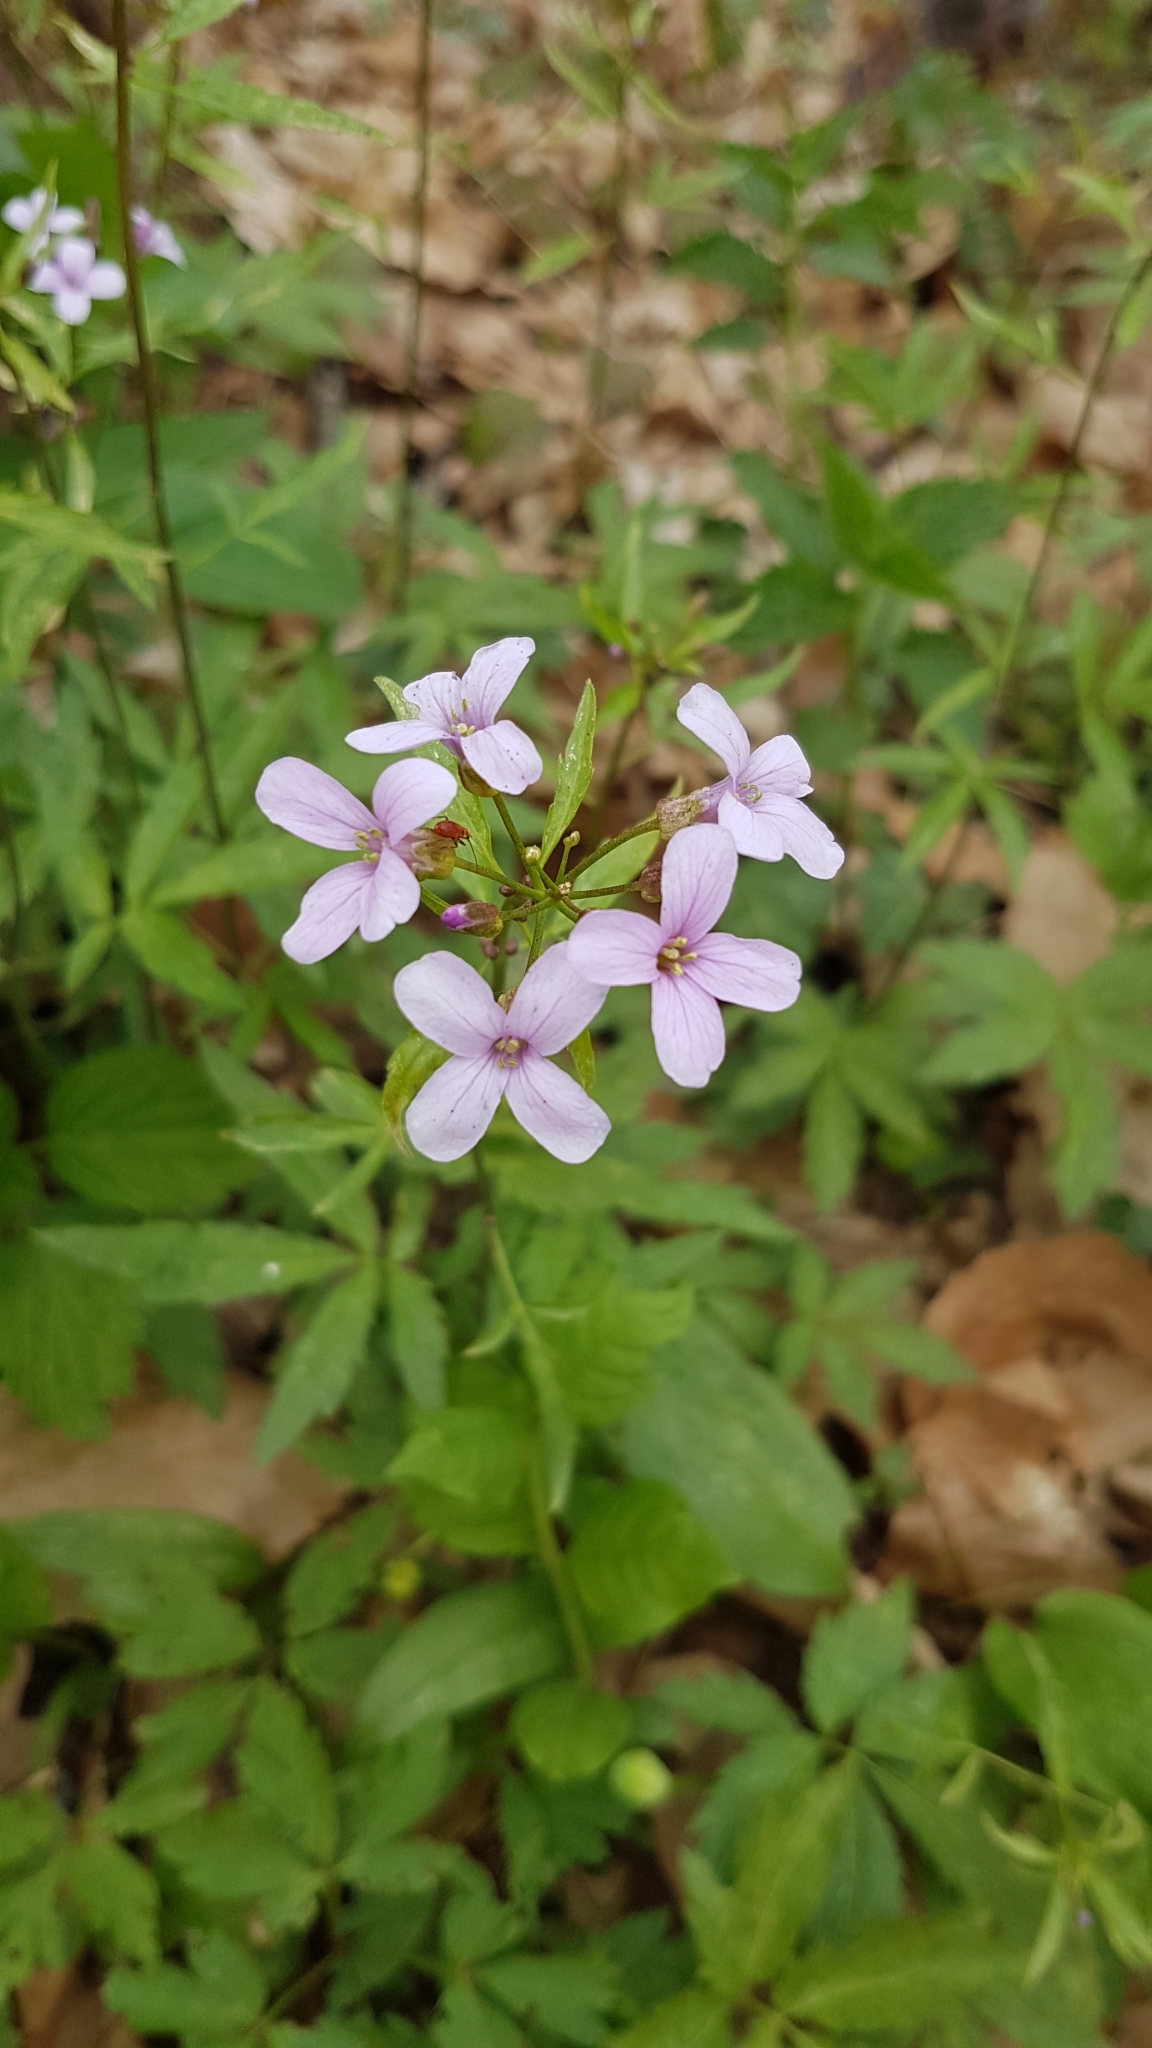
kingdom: Plantae
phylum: Tracheophyta
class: Magnoliopsida
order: Brassicales
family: Brassicaceae
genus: Cardamine
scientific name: Cardamine bulbifera
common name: Coralroot bittercress
